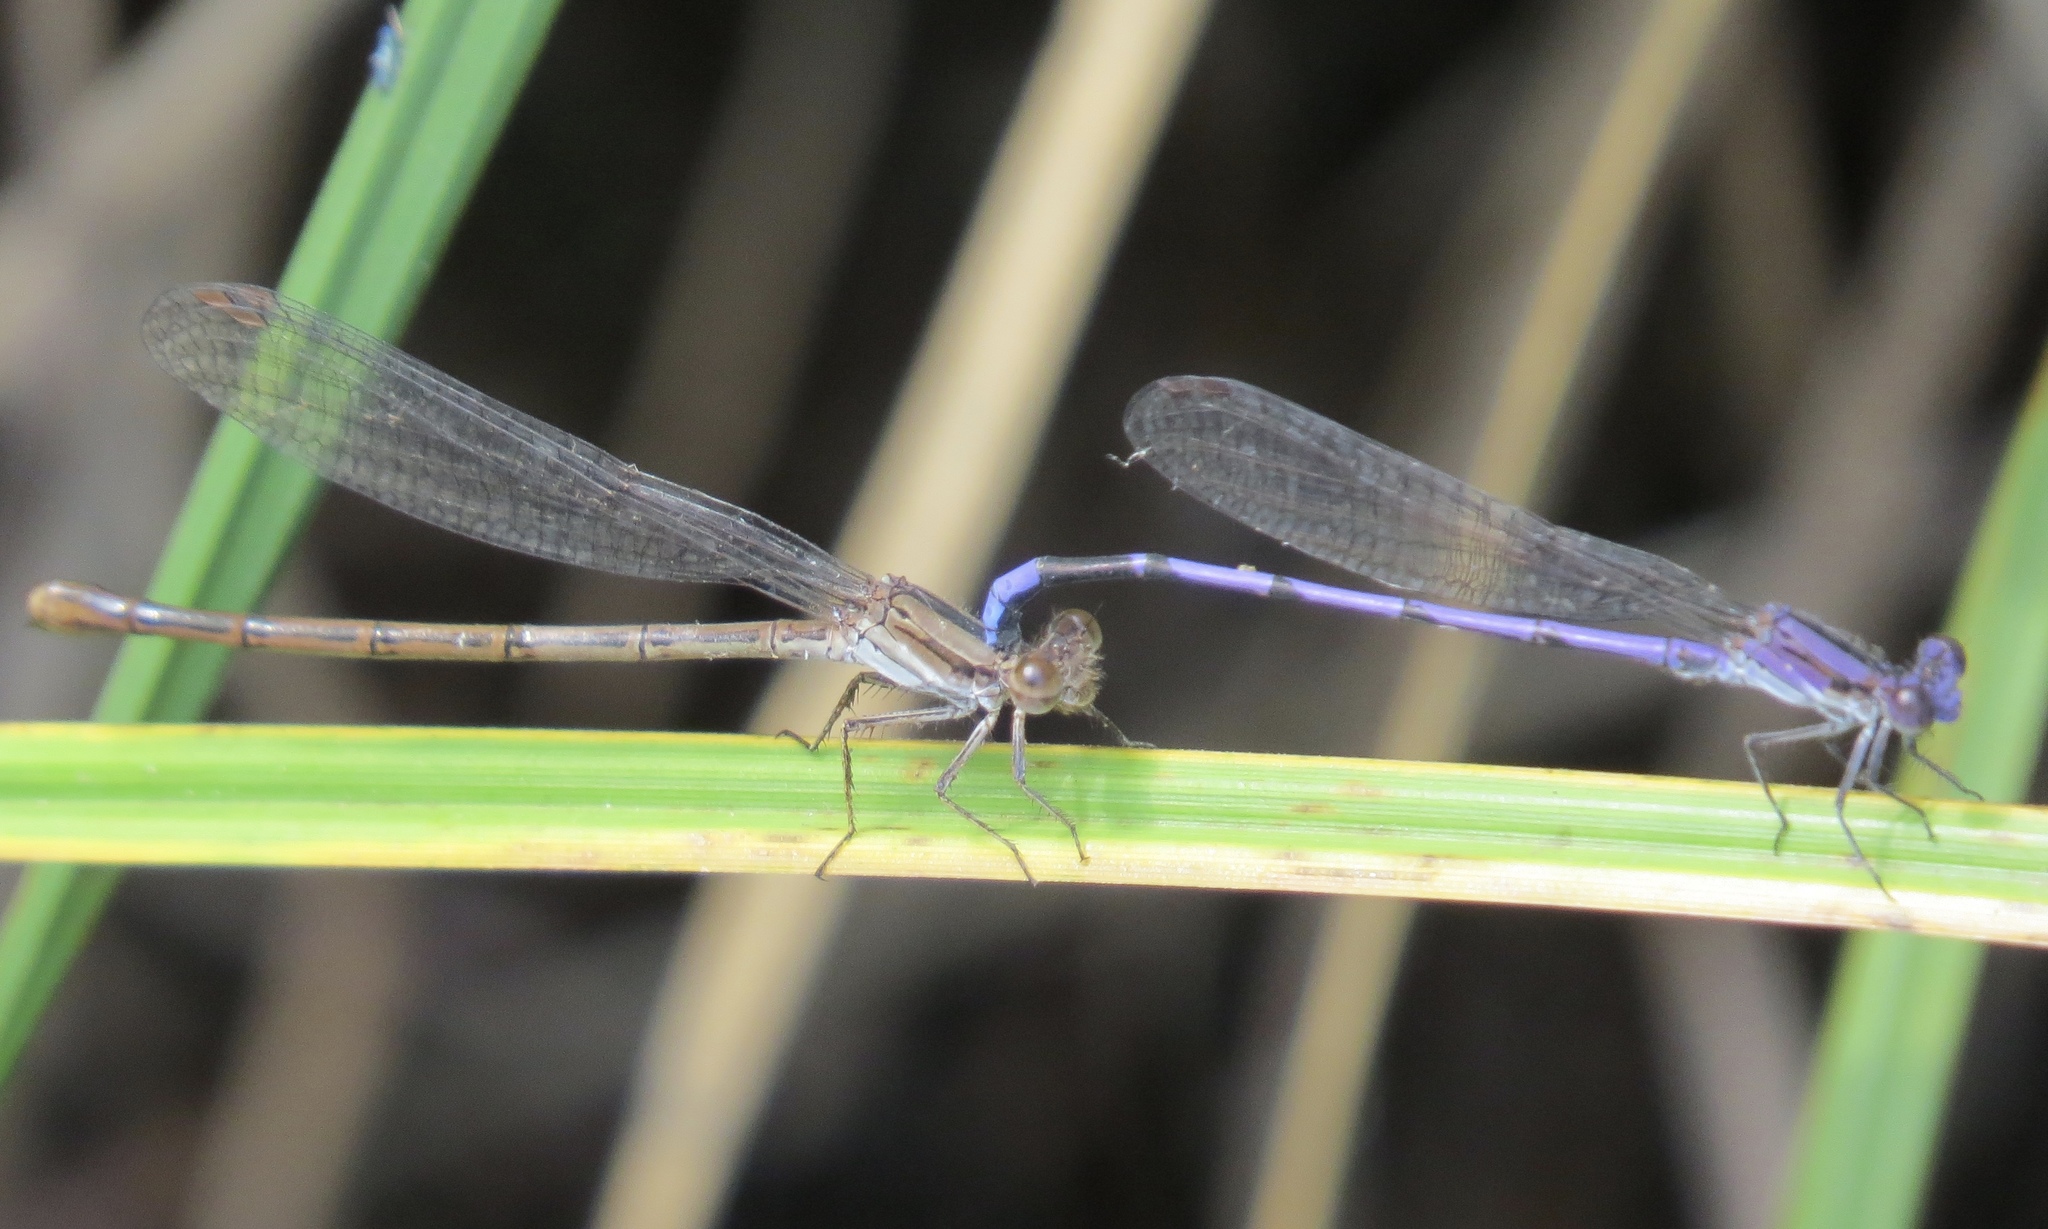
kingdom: Animalia
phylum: Arthropoda
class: Insecta
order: Odonata
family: Coenagrionidae
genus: Argia
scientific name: Argia fumipennis
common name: Variable dancer
